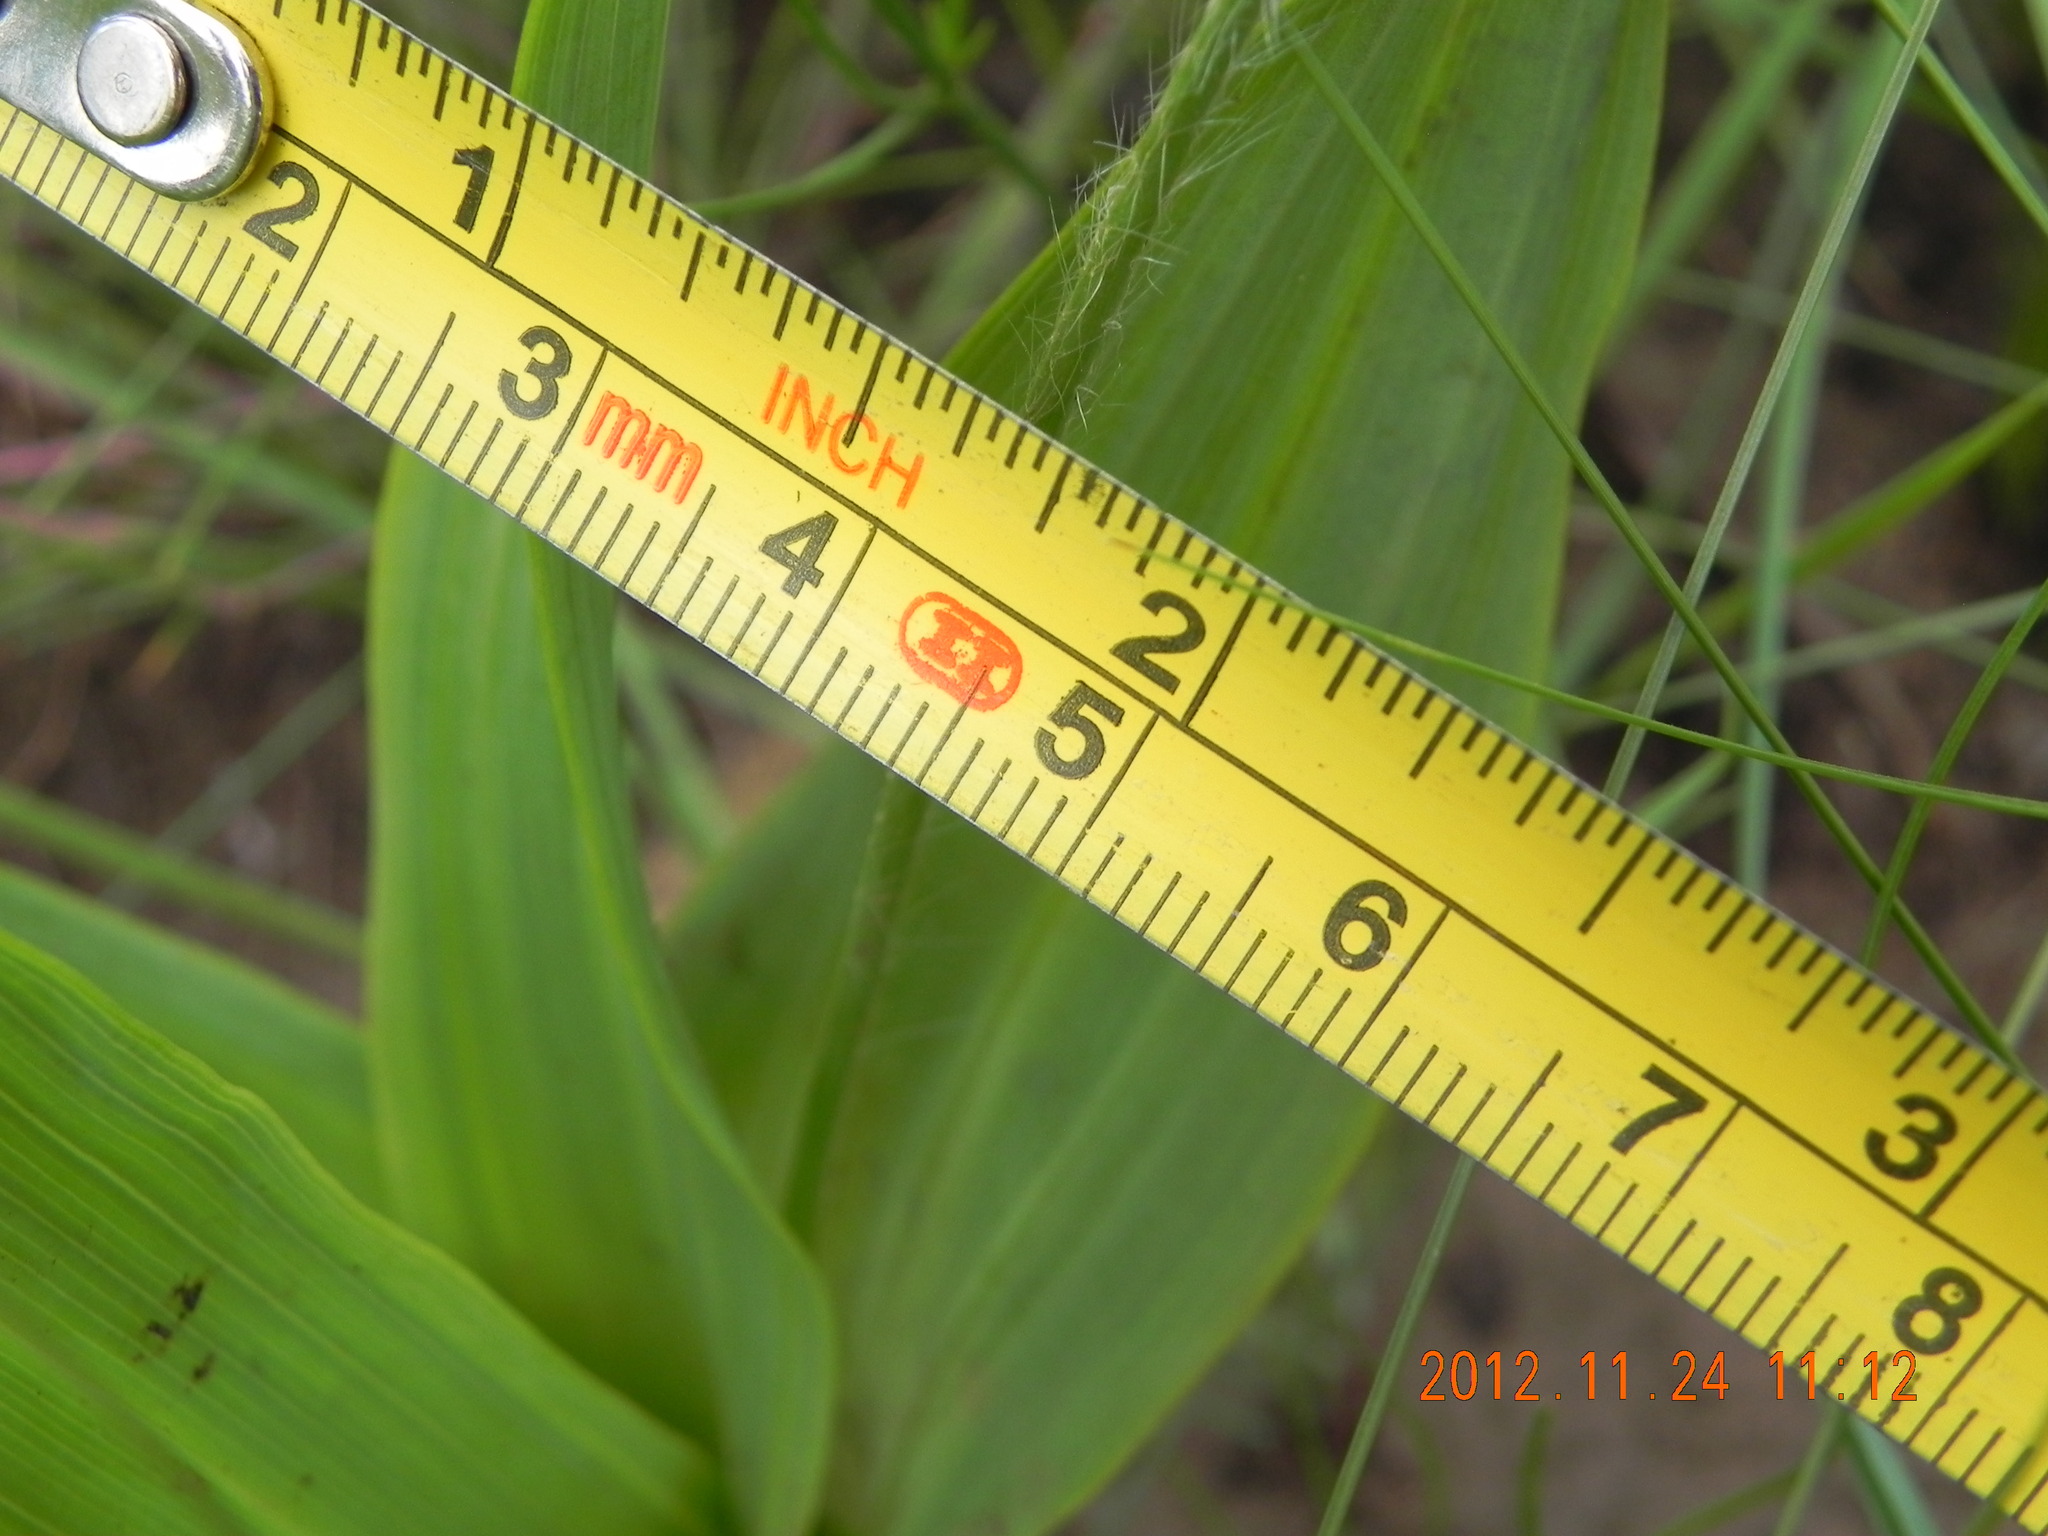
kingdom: Plantae
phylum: Tracheophyta
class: Liliopsida
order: Asparagales
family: Hypoxidaceae
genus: Hypoxis
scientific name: Hypoxis galpinii
